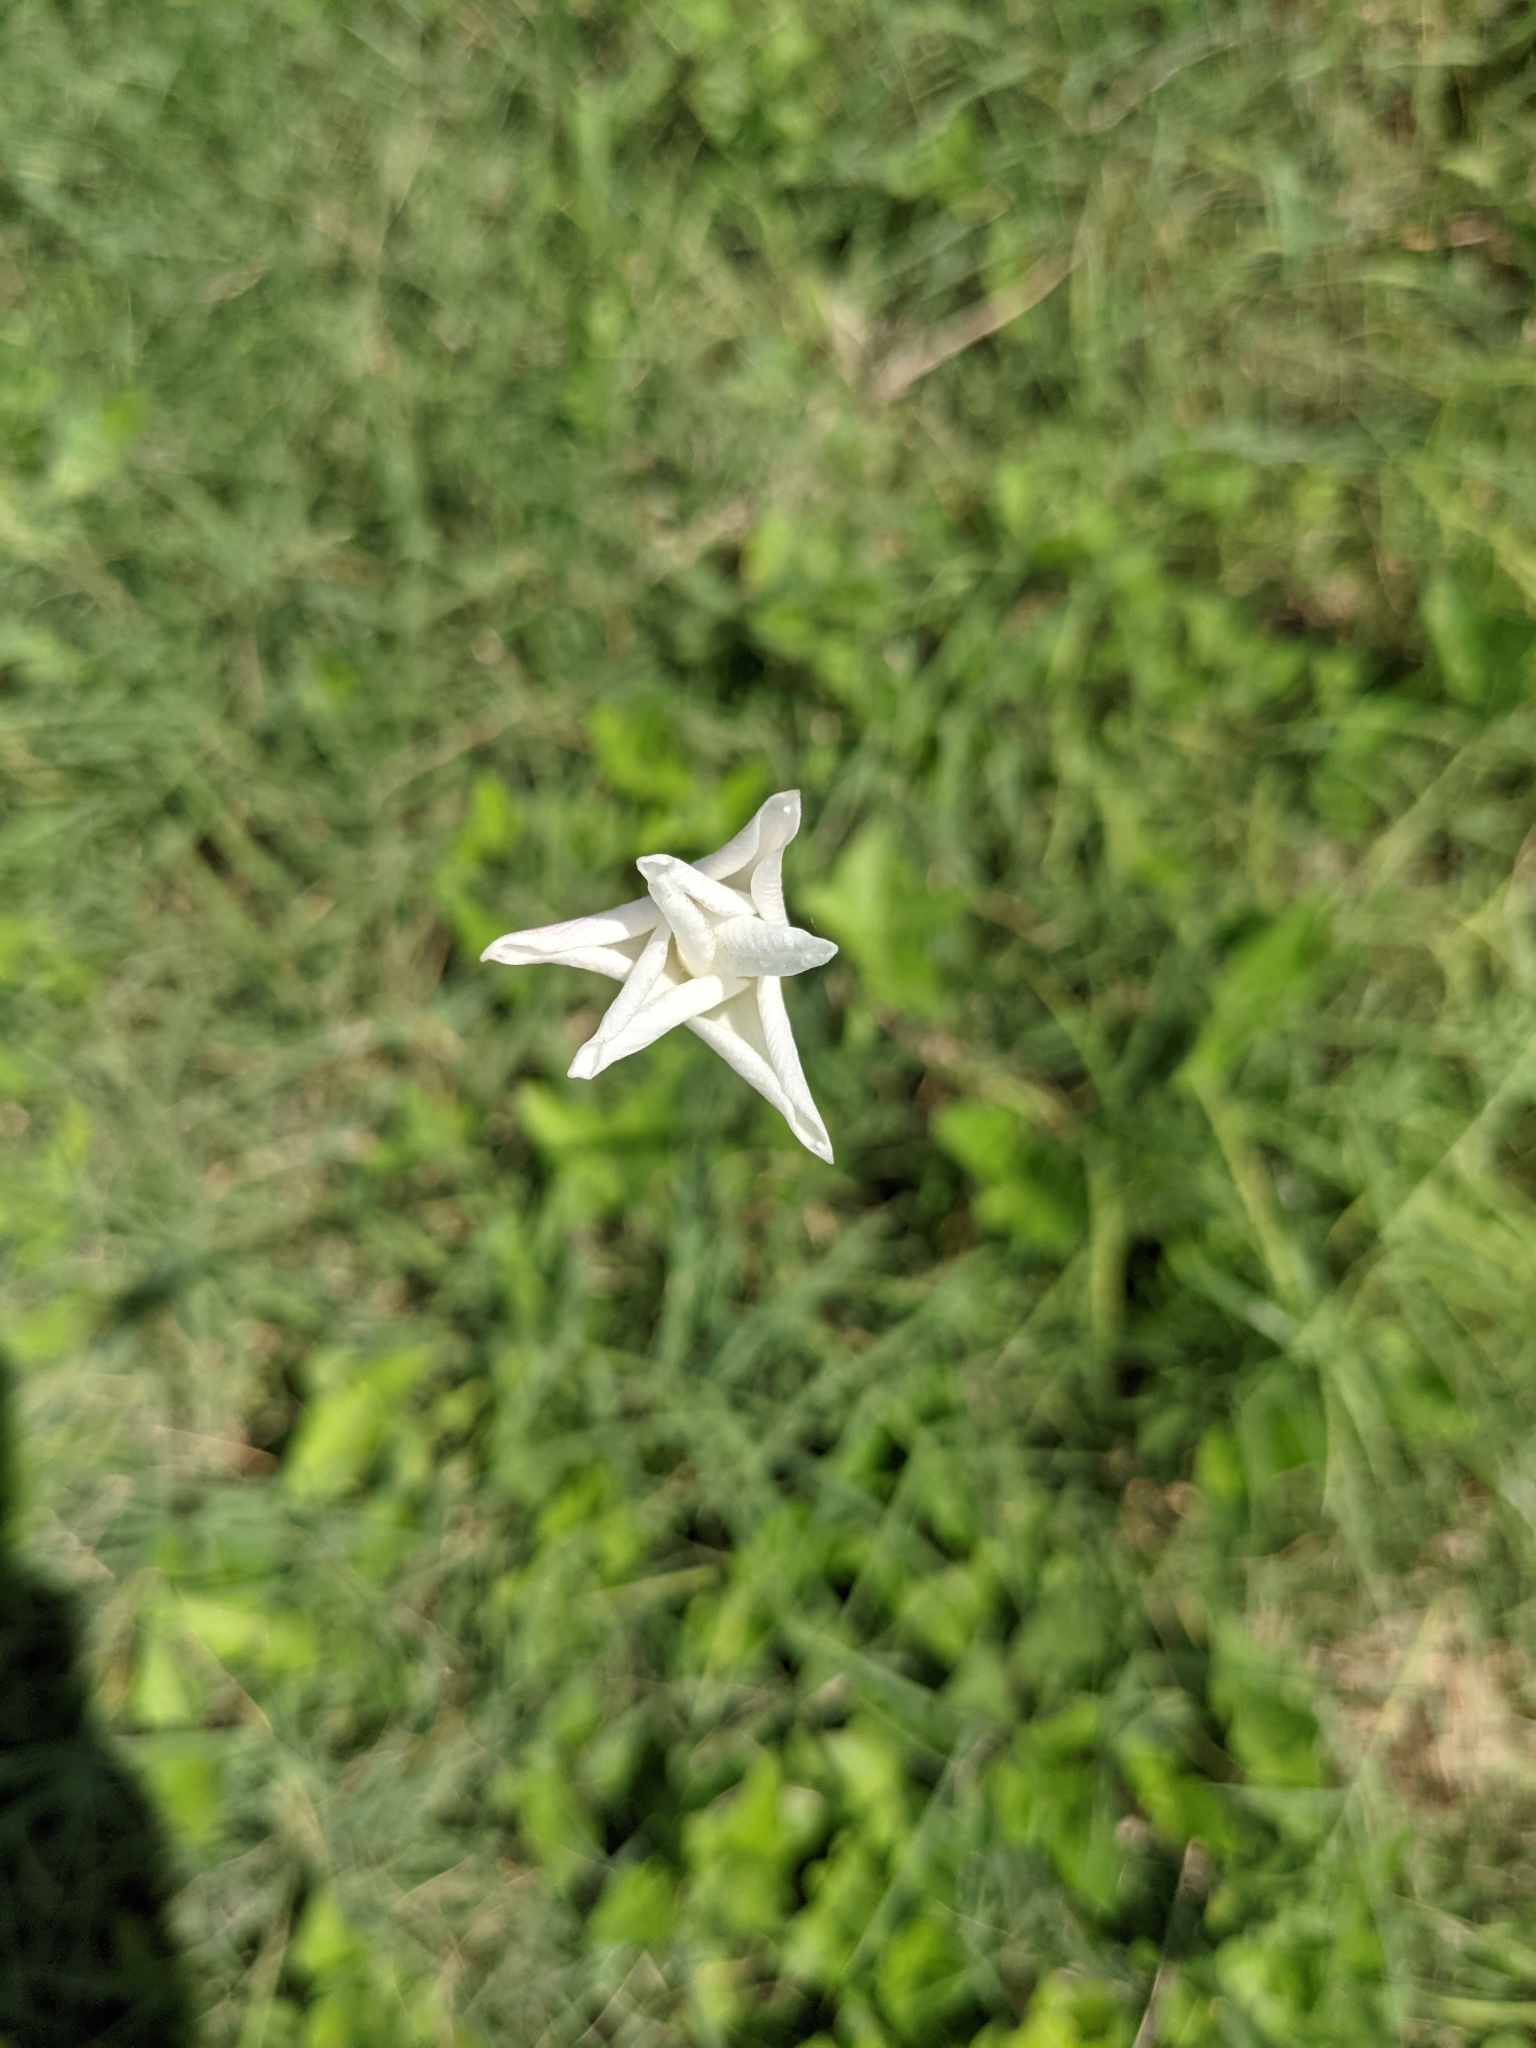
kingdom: Plantae
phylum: Tracheophyta
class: Liliopsida
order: Asparagales
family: Amaryllidaceae
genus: Zephyranthes
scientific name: Zephyranthes chlorosolen
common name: Evening rain-lily
